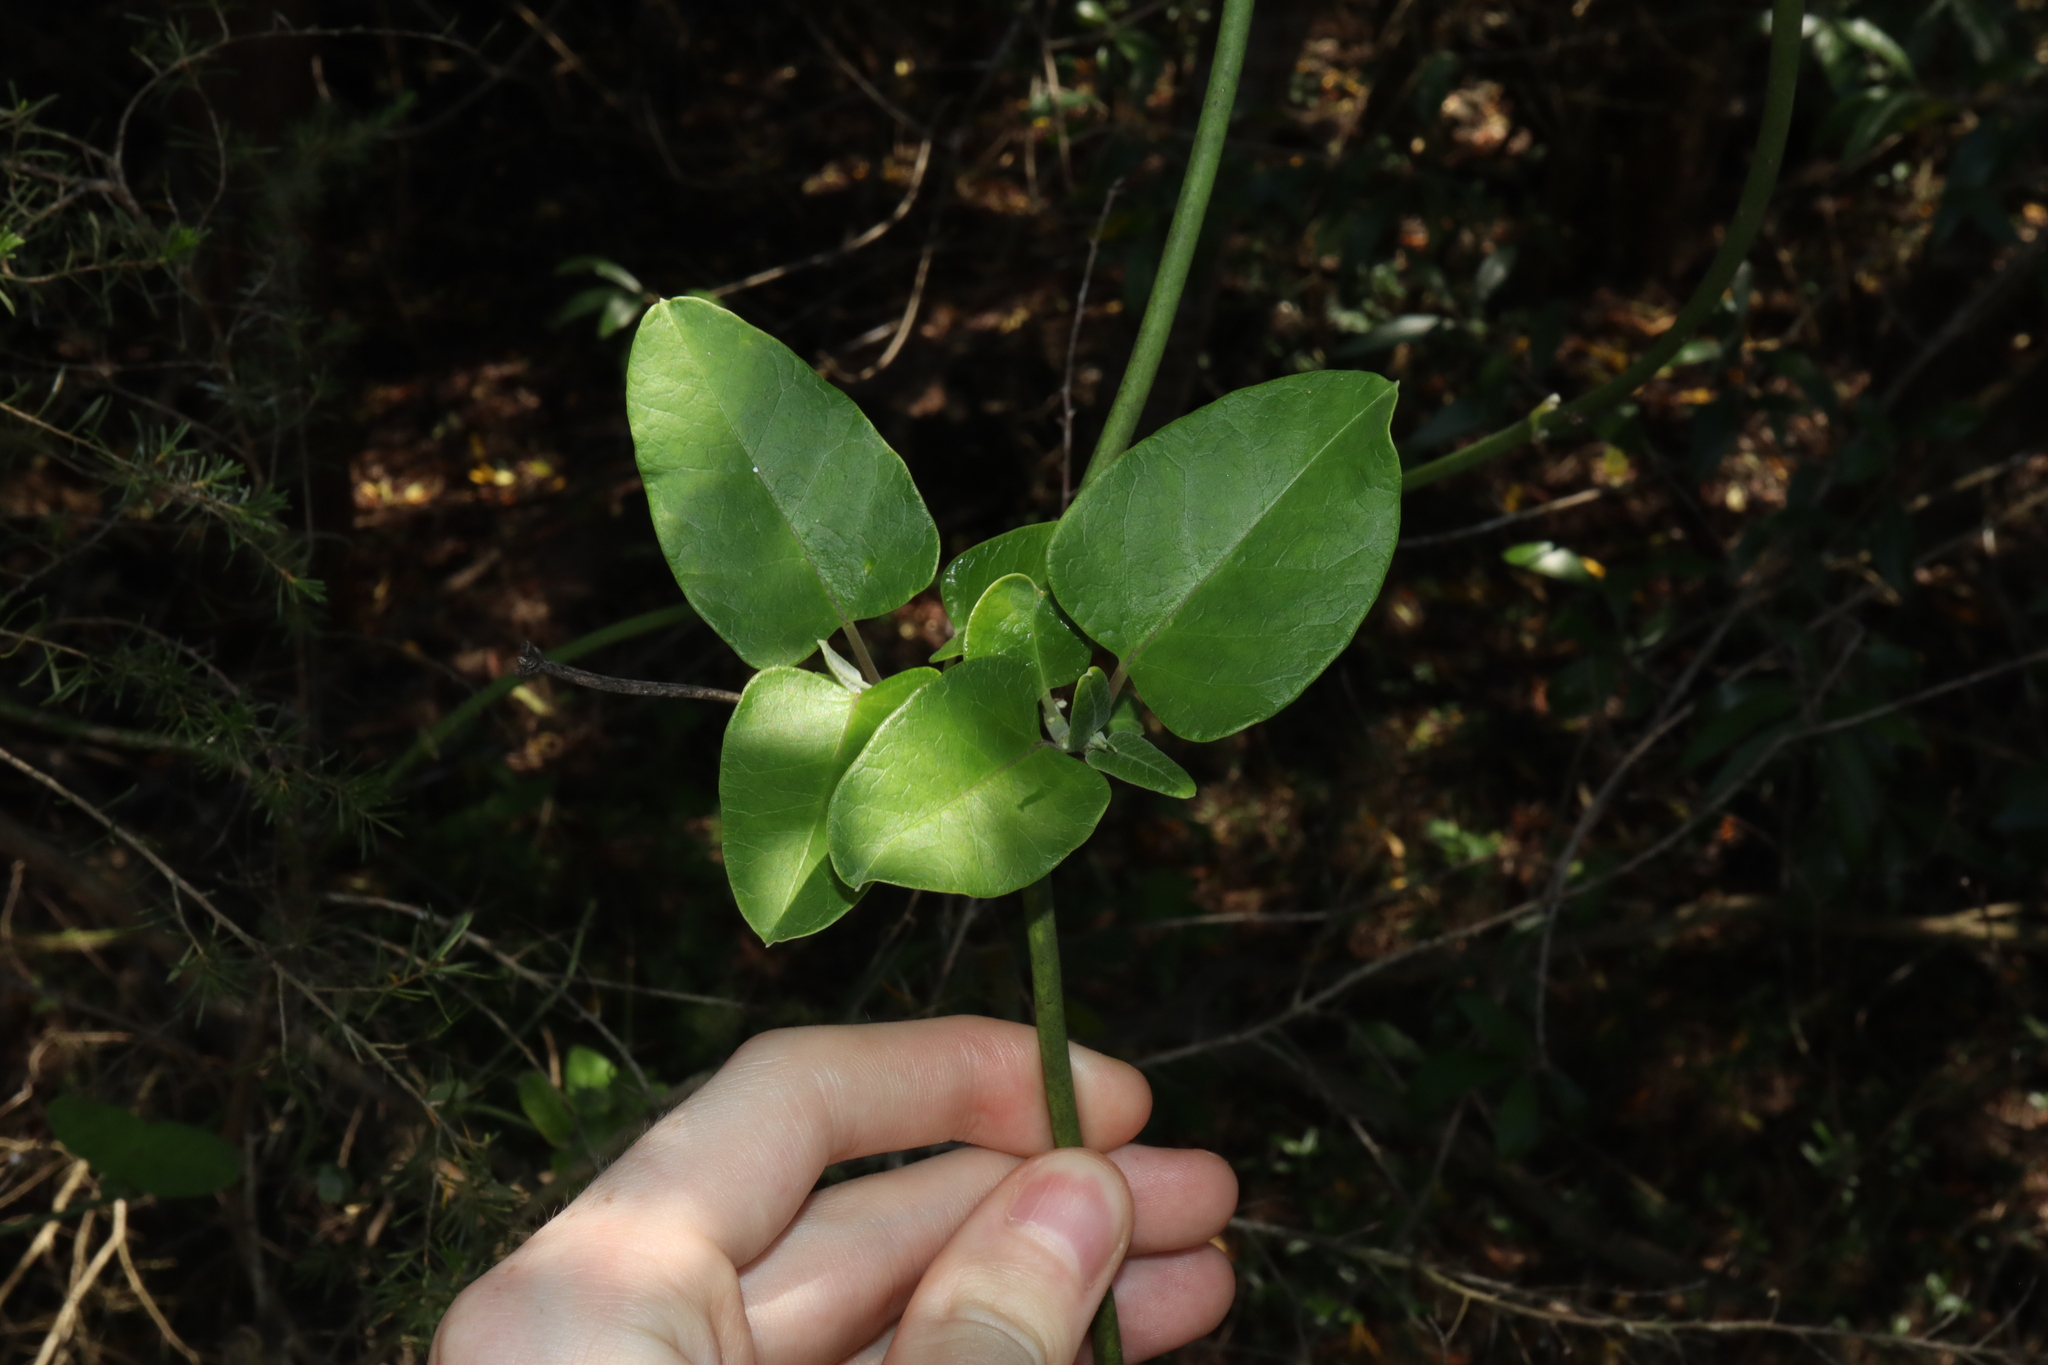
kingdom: Plantae
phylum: Tracheophyta
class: Magnoliopsida
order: Gentianales
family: Apocynaceae
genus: Araujia
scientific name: Araujia sericifera
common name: White bladderflower
